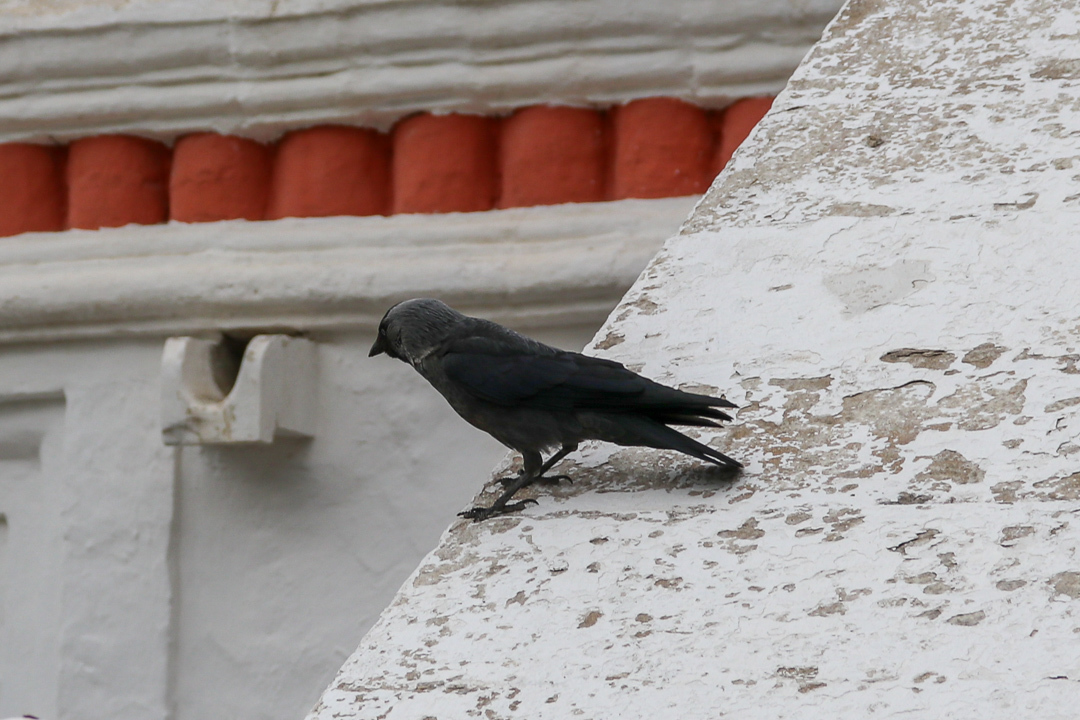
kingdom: Animalia
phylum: Chordata
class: Aves
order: Passeriformes
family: Corvidae
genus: Coloeus
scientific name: Coloeus monedula
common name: Western jackdaw
